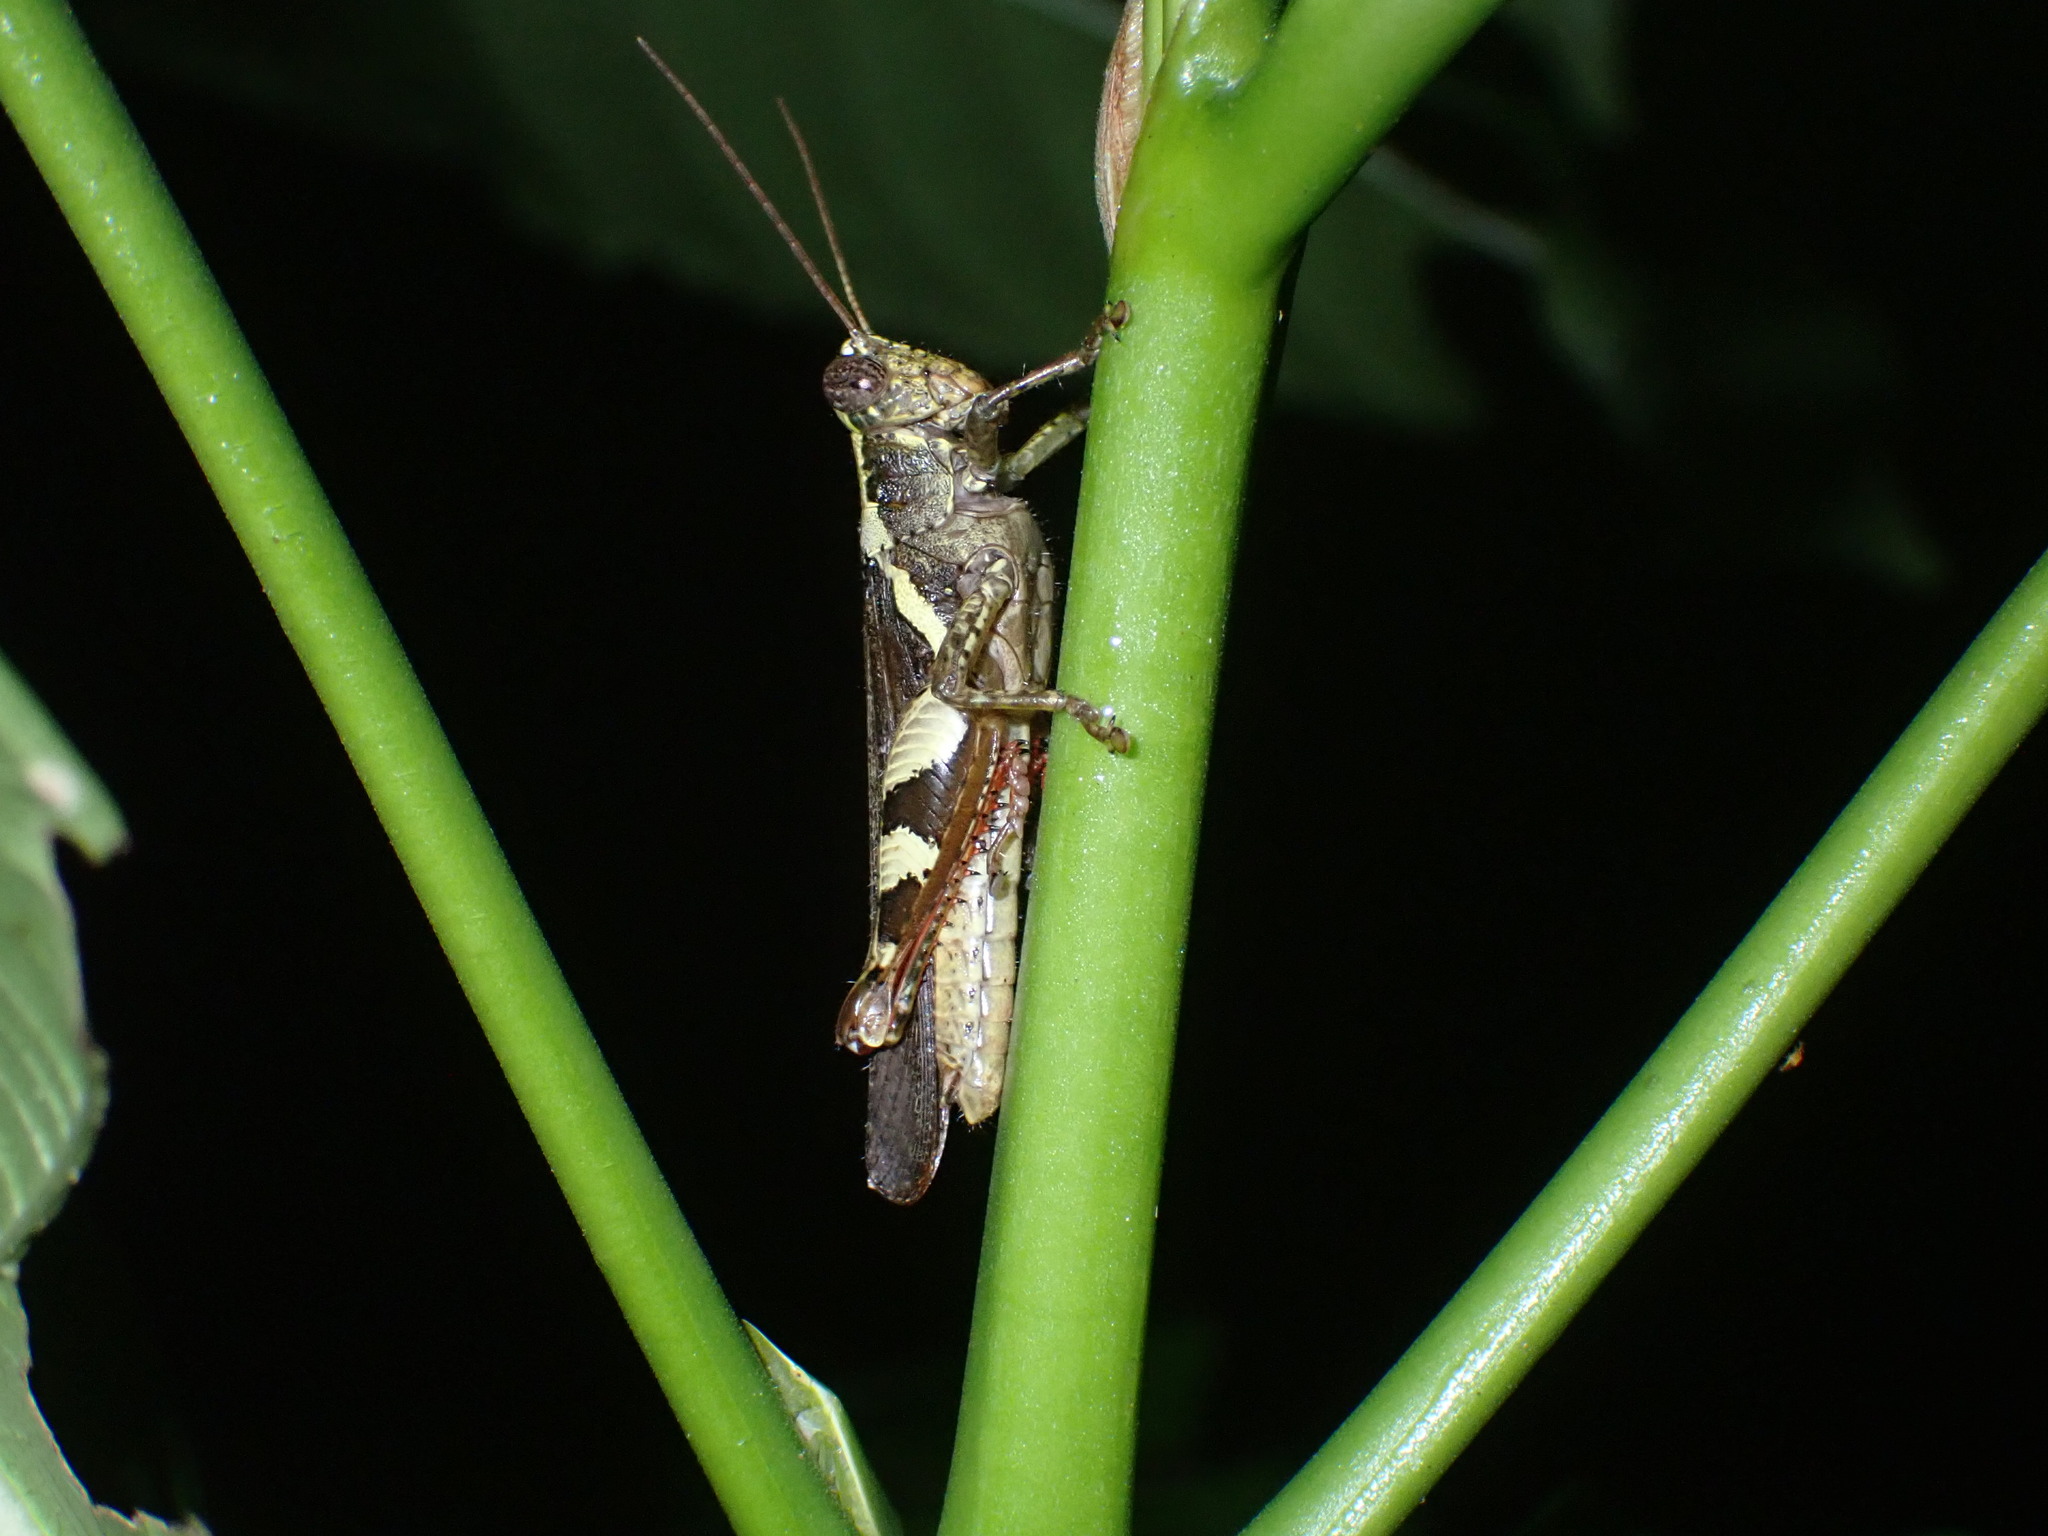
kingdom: Animalia
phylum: Arthropoda
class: Insecta
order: Orthoptera
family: Acrididae
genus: Xenocatantops
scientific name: Xenocatantops humile
